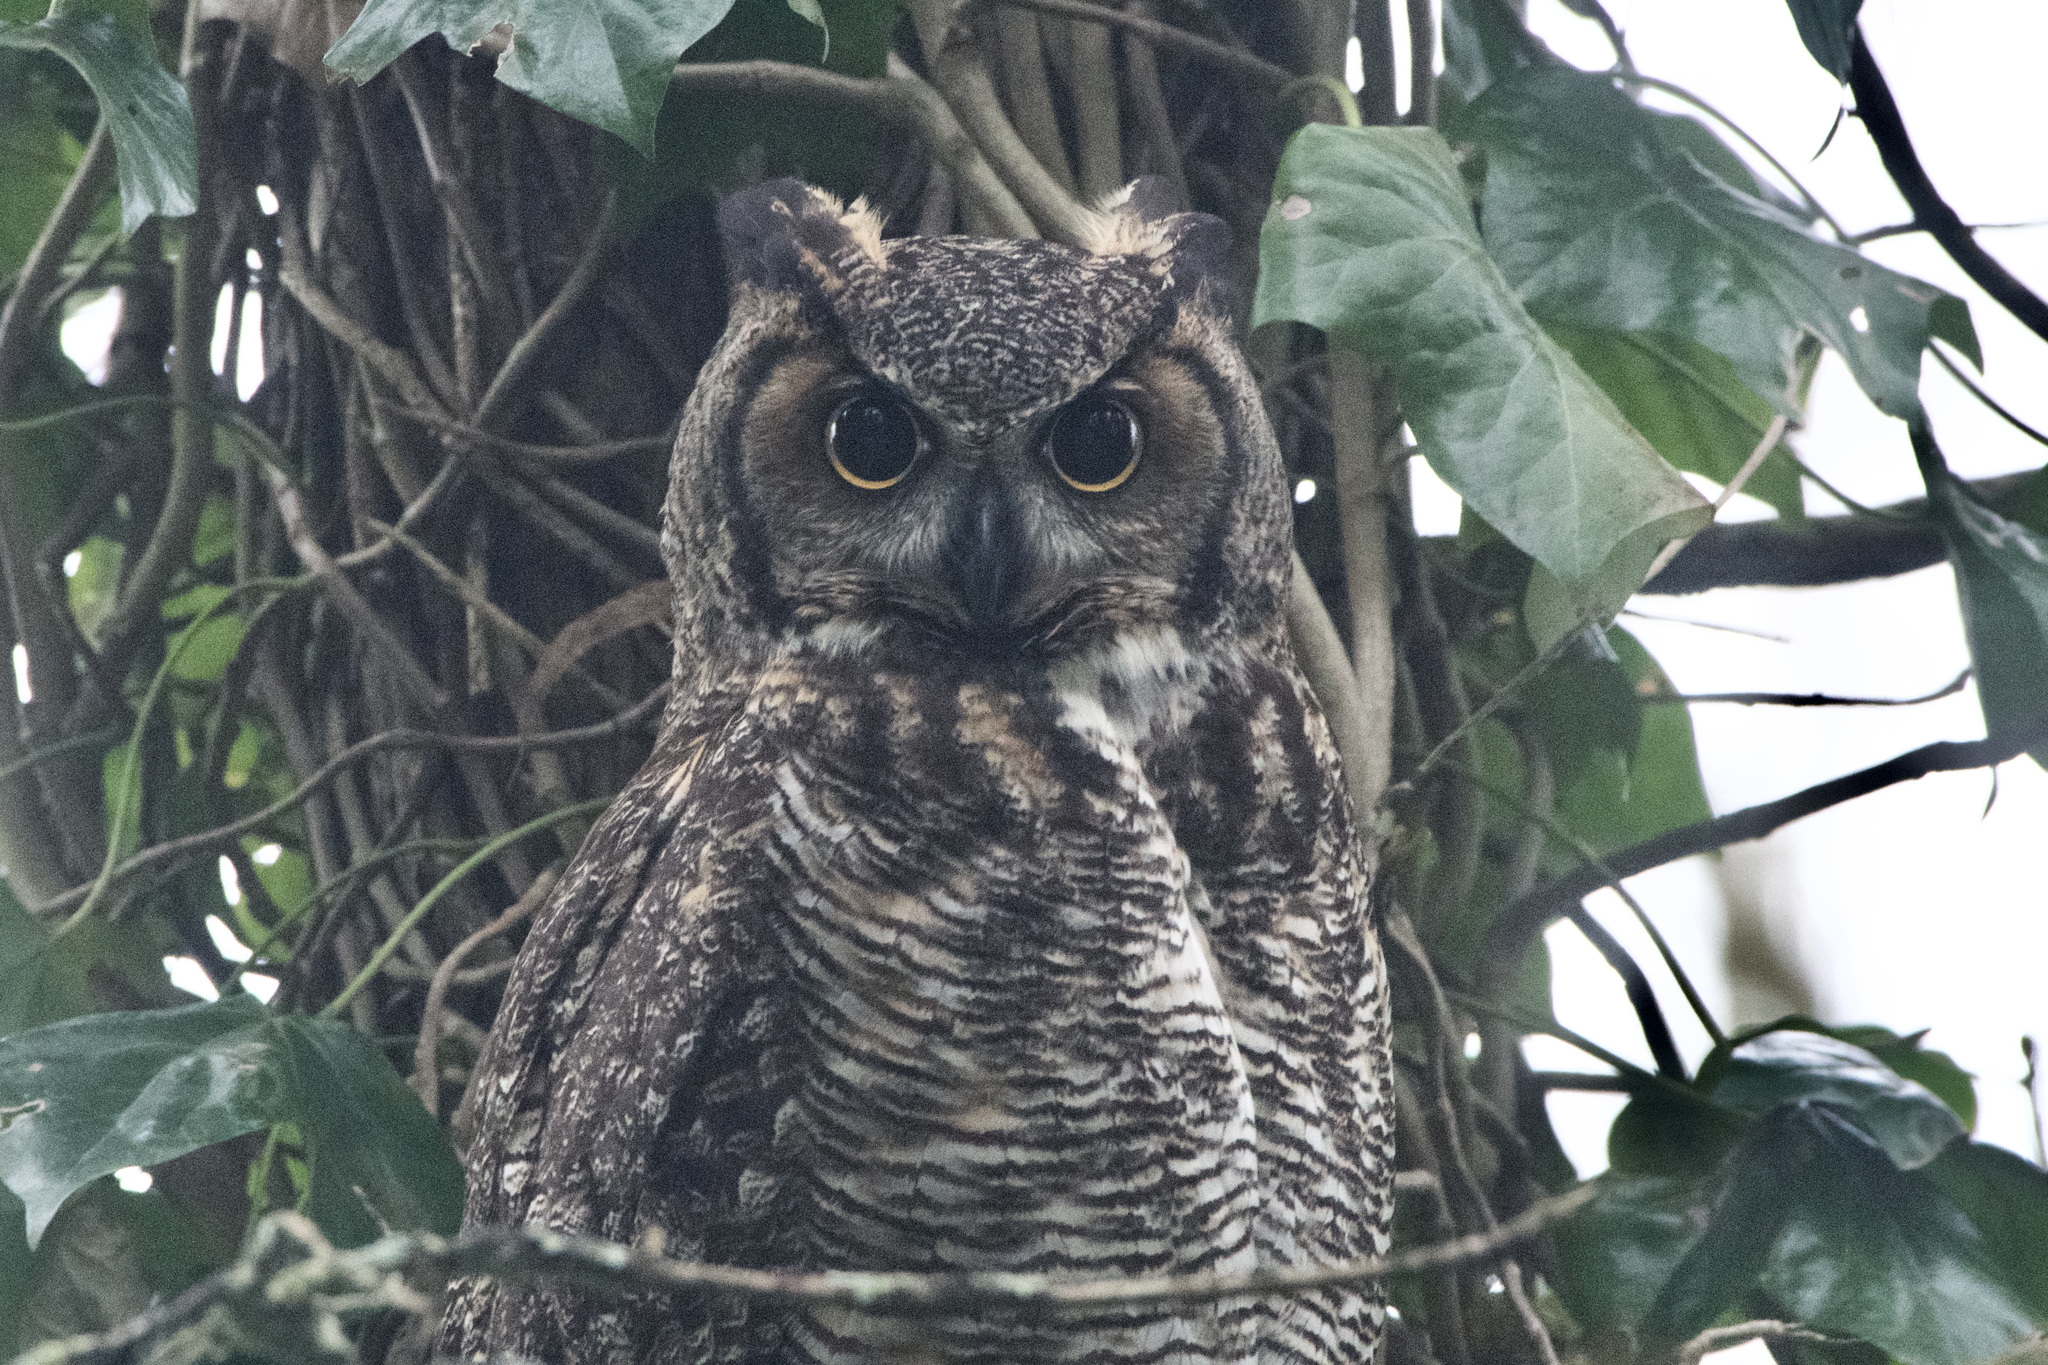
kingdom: Animalia
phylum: Chordata
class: Aves
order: Strigiformes
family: Strigidae
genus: Bubo
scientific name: Bubo virginianus
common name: Great horned owl
